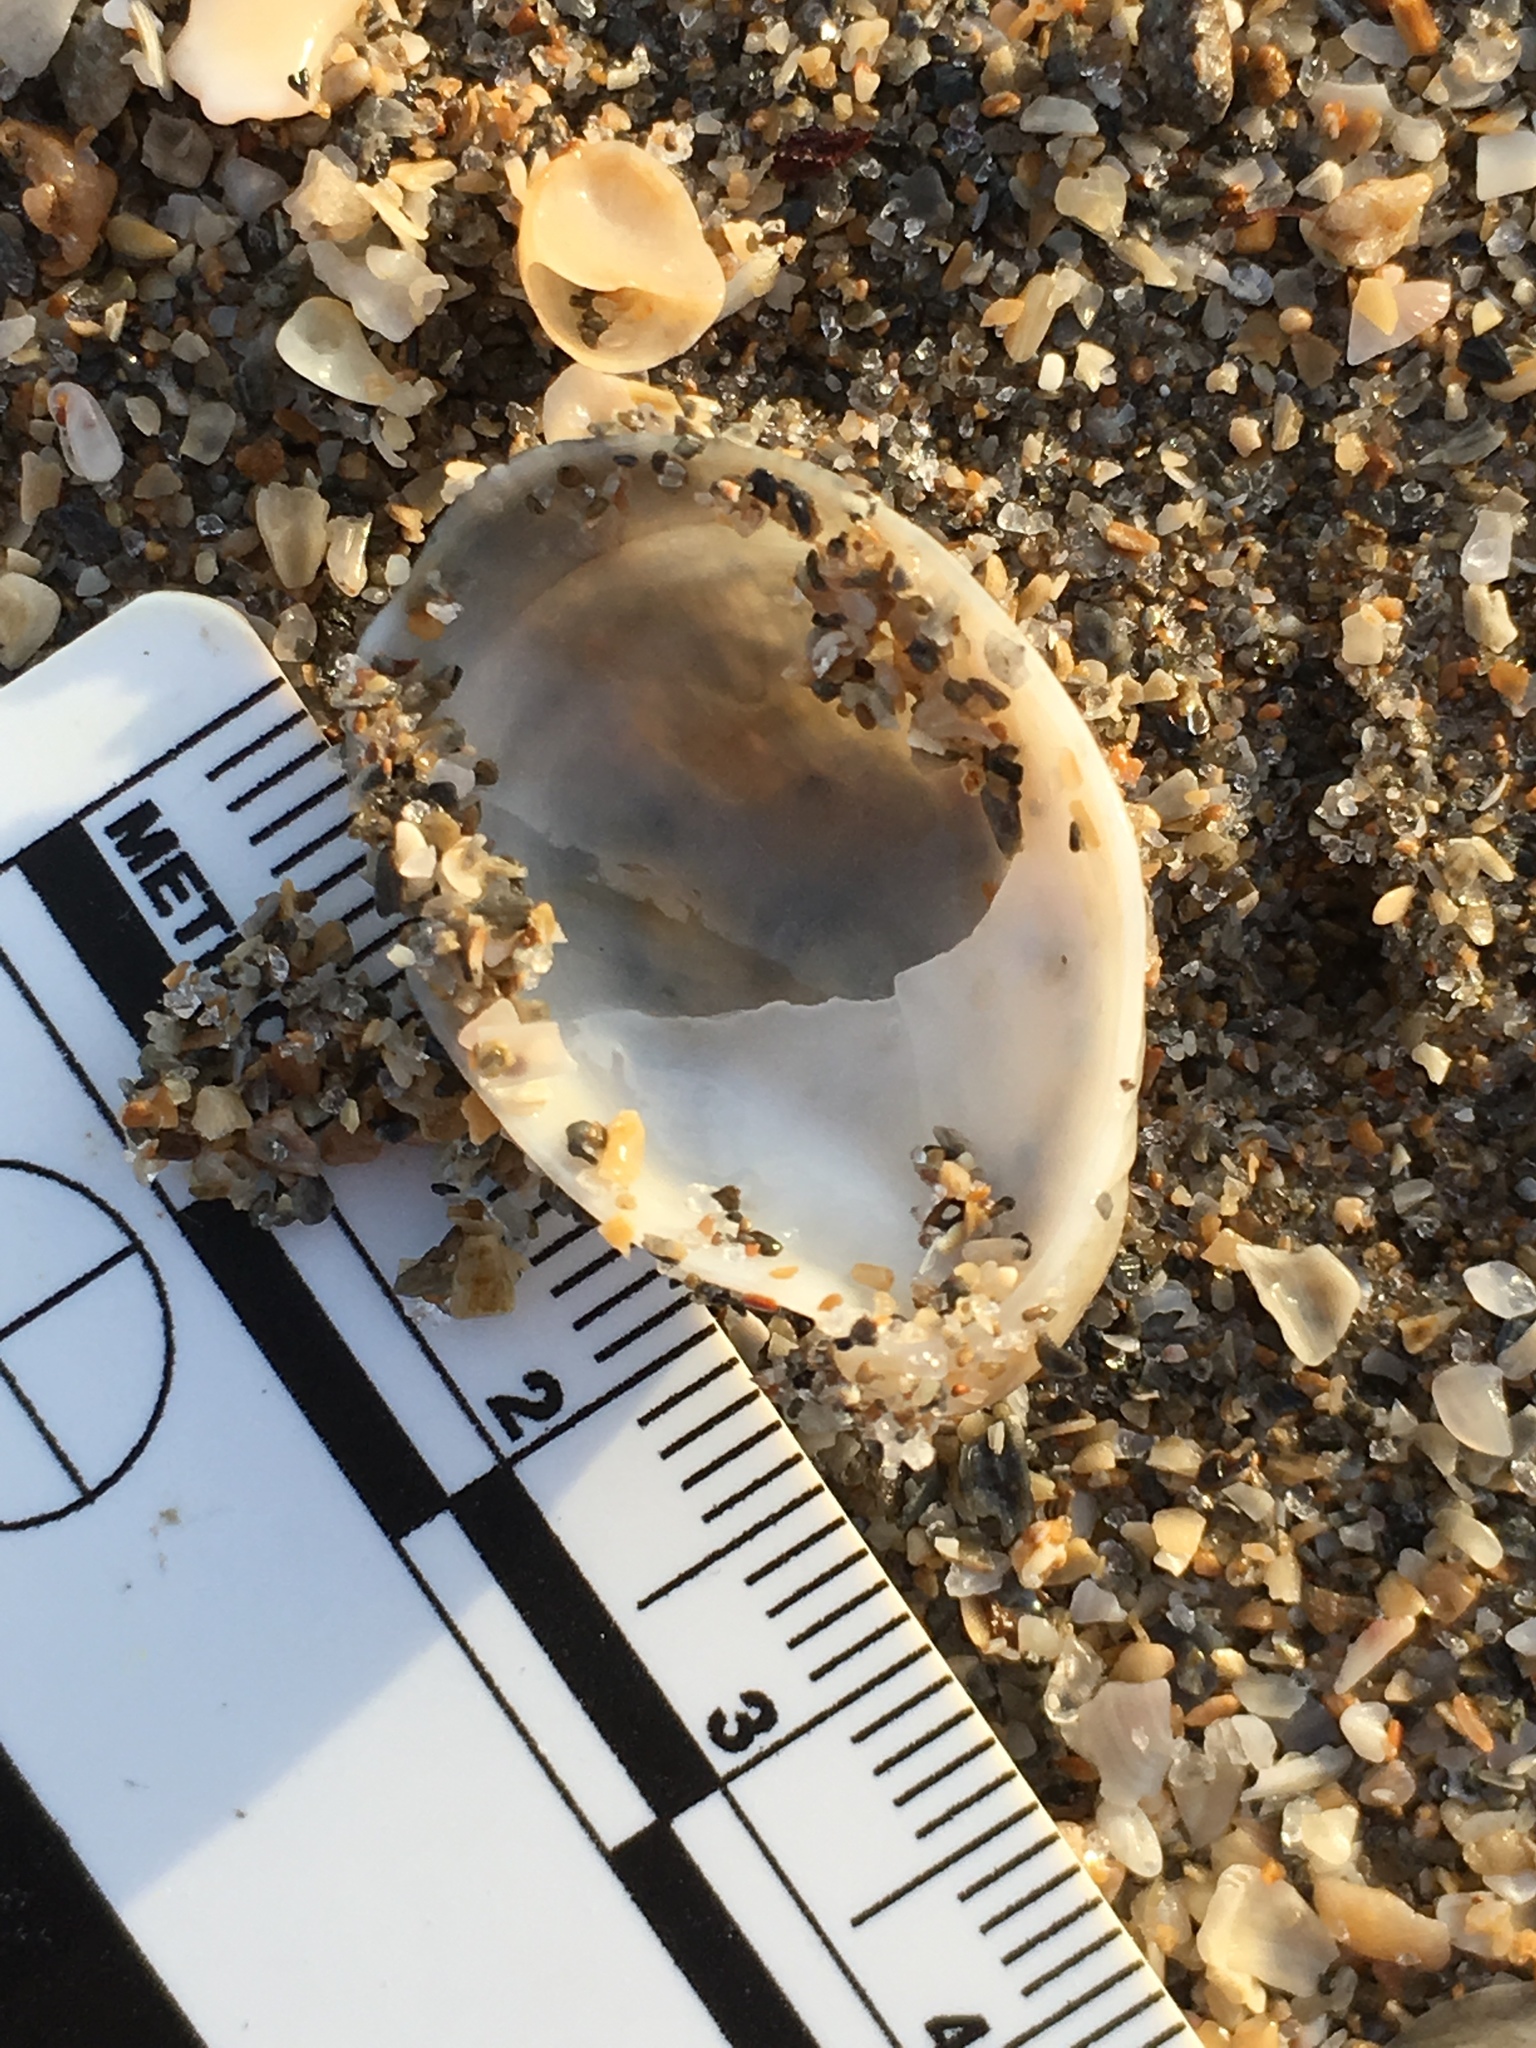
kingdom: Animalia
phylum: Mollusca
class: Gastropoda
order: Littorinimorpha
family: Calyptraeidae
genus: Crepidula
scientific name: Crepidula fornicata
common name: Slipper limpet
